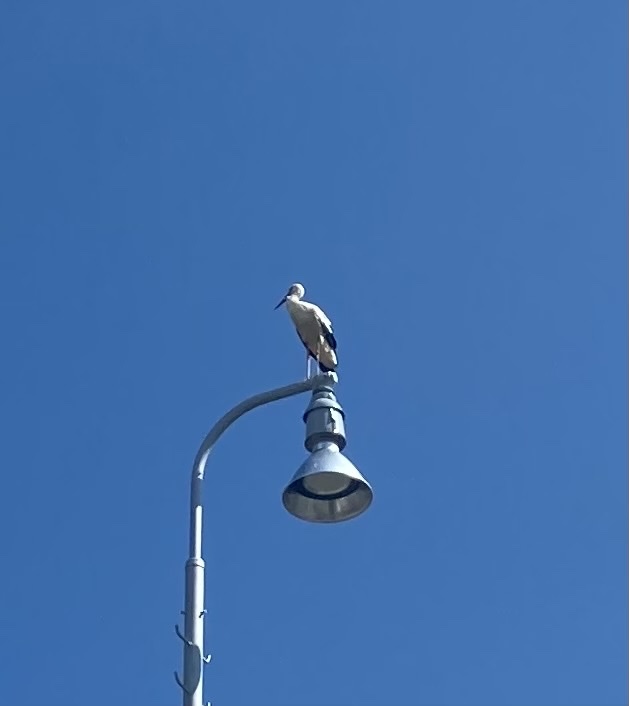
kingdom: Animalia
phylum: Chordata
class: Aves
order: Ciconiiformes
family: Ciconiidae
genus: Ciconia
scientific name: Ciconia ciconia
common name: White stork
